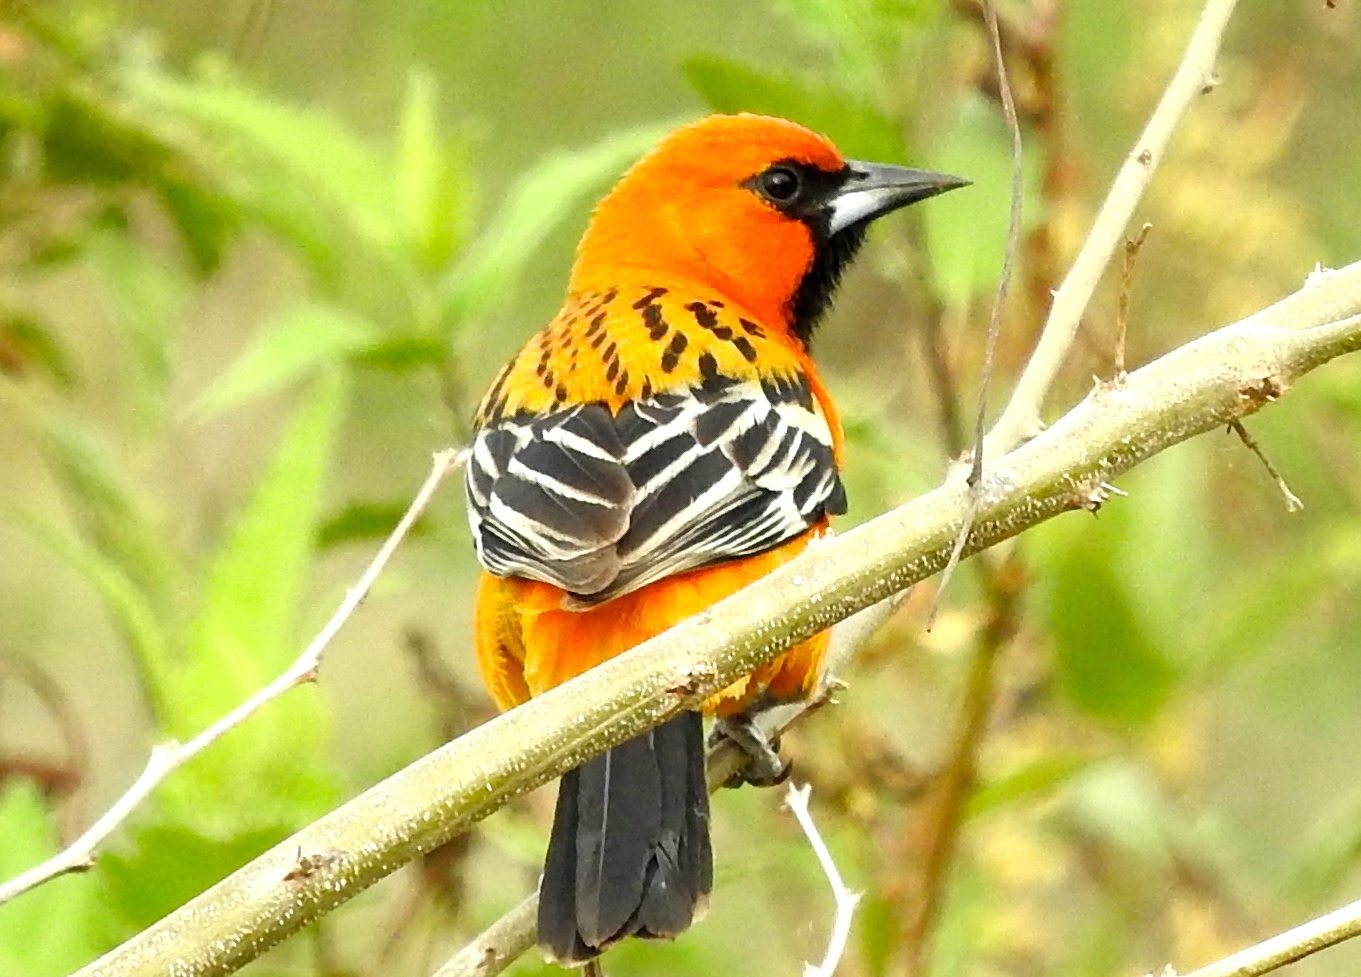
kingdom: Animalia
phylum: Chordata
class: Aves
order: Passeriformes
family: Icteridae
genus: Icterus
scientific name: Icterus pustulatus
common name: Streak-backed oriole
